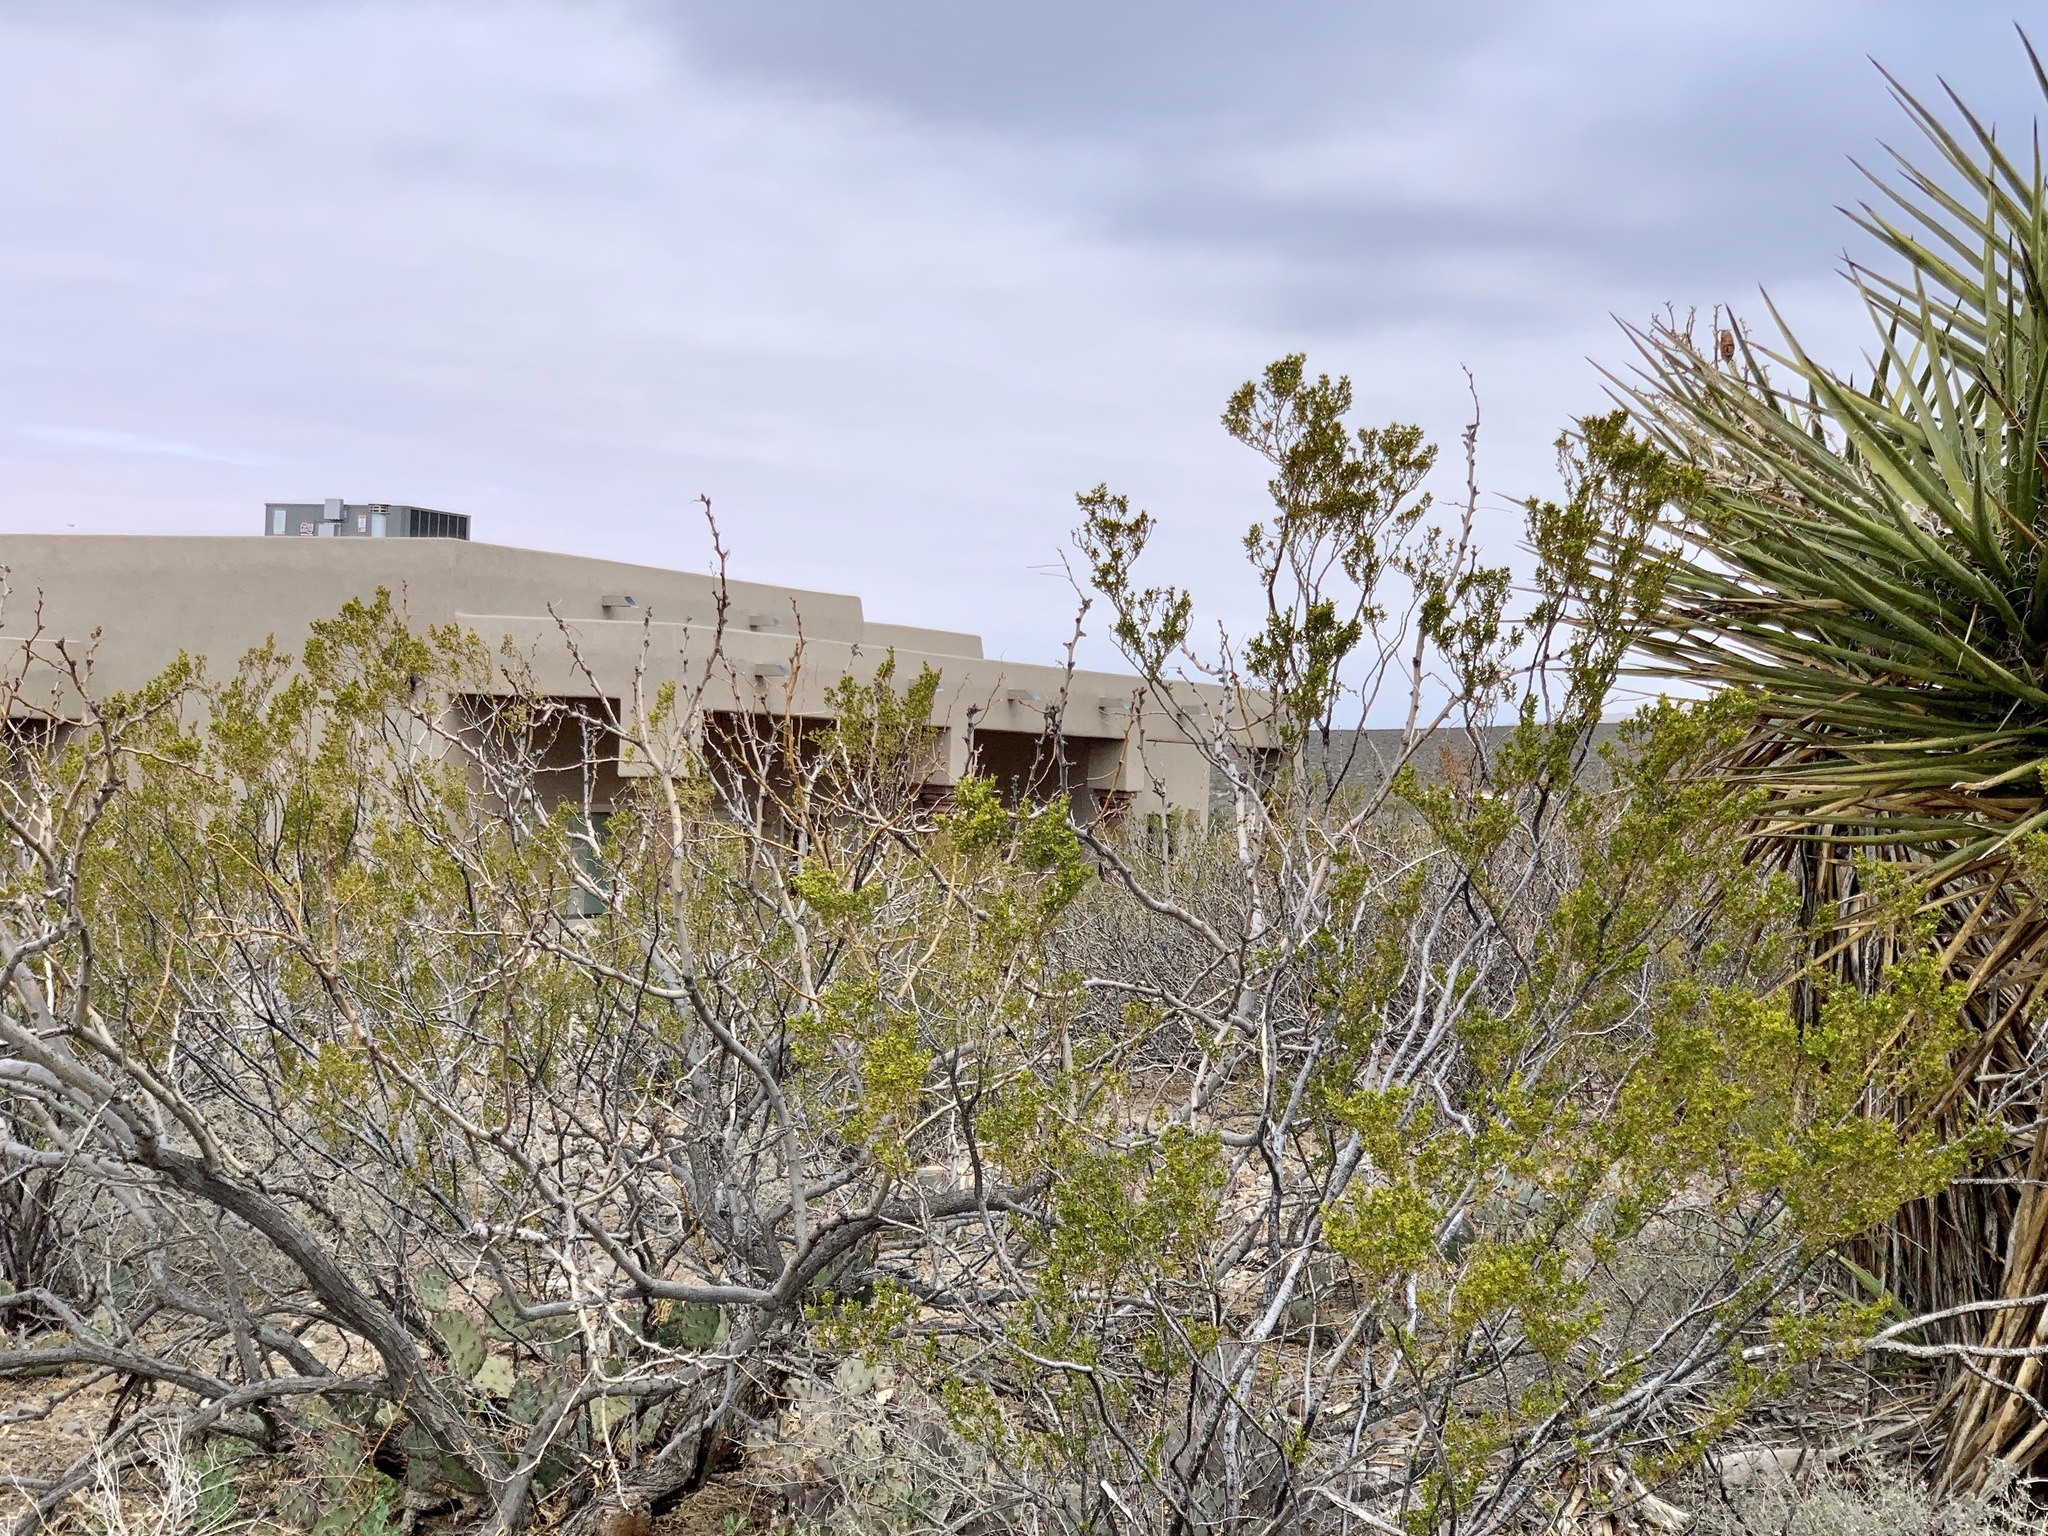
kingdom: Plantae
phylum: Tracheophyta
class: Magnoliopsida
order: Zygophyllales
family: Zygophyllaceae
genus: Larrea
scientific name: Larrea tridentata
